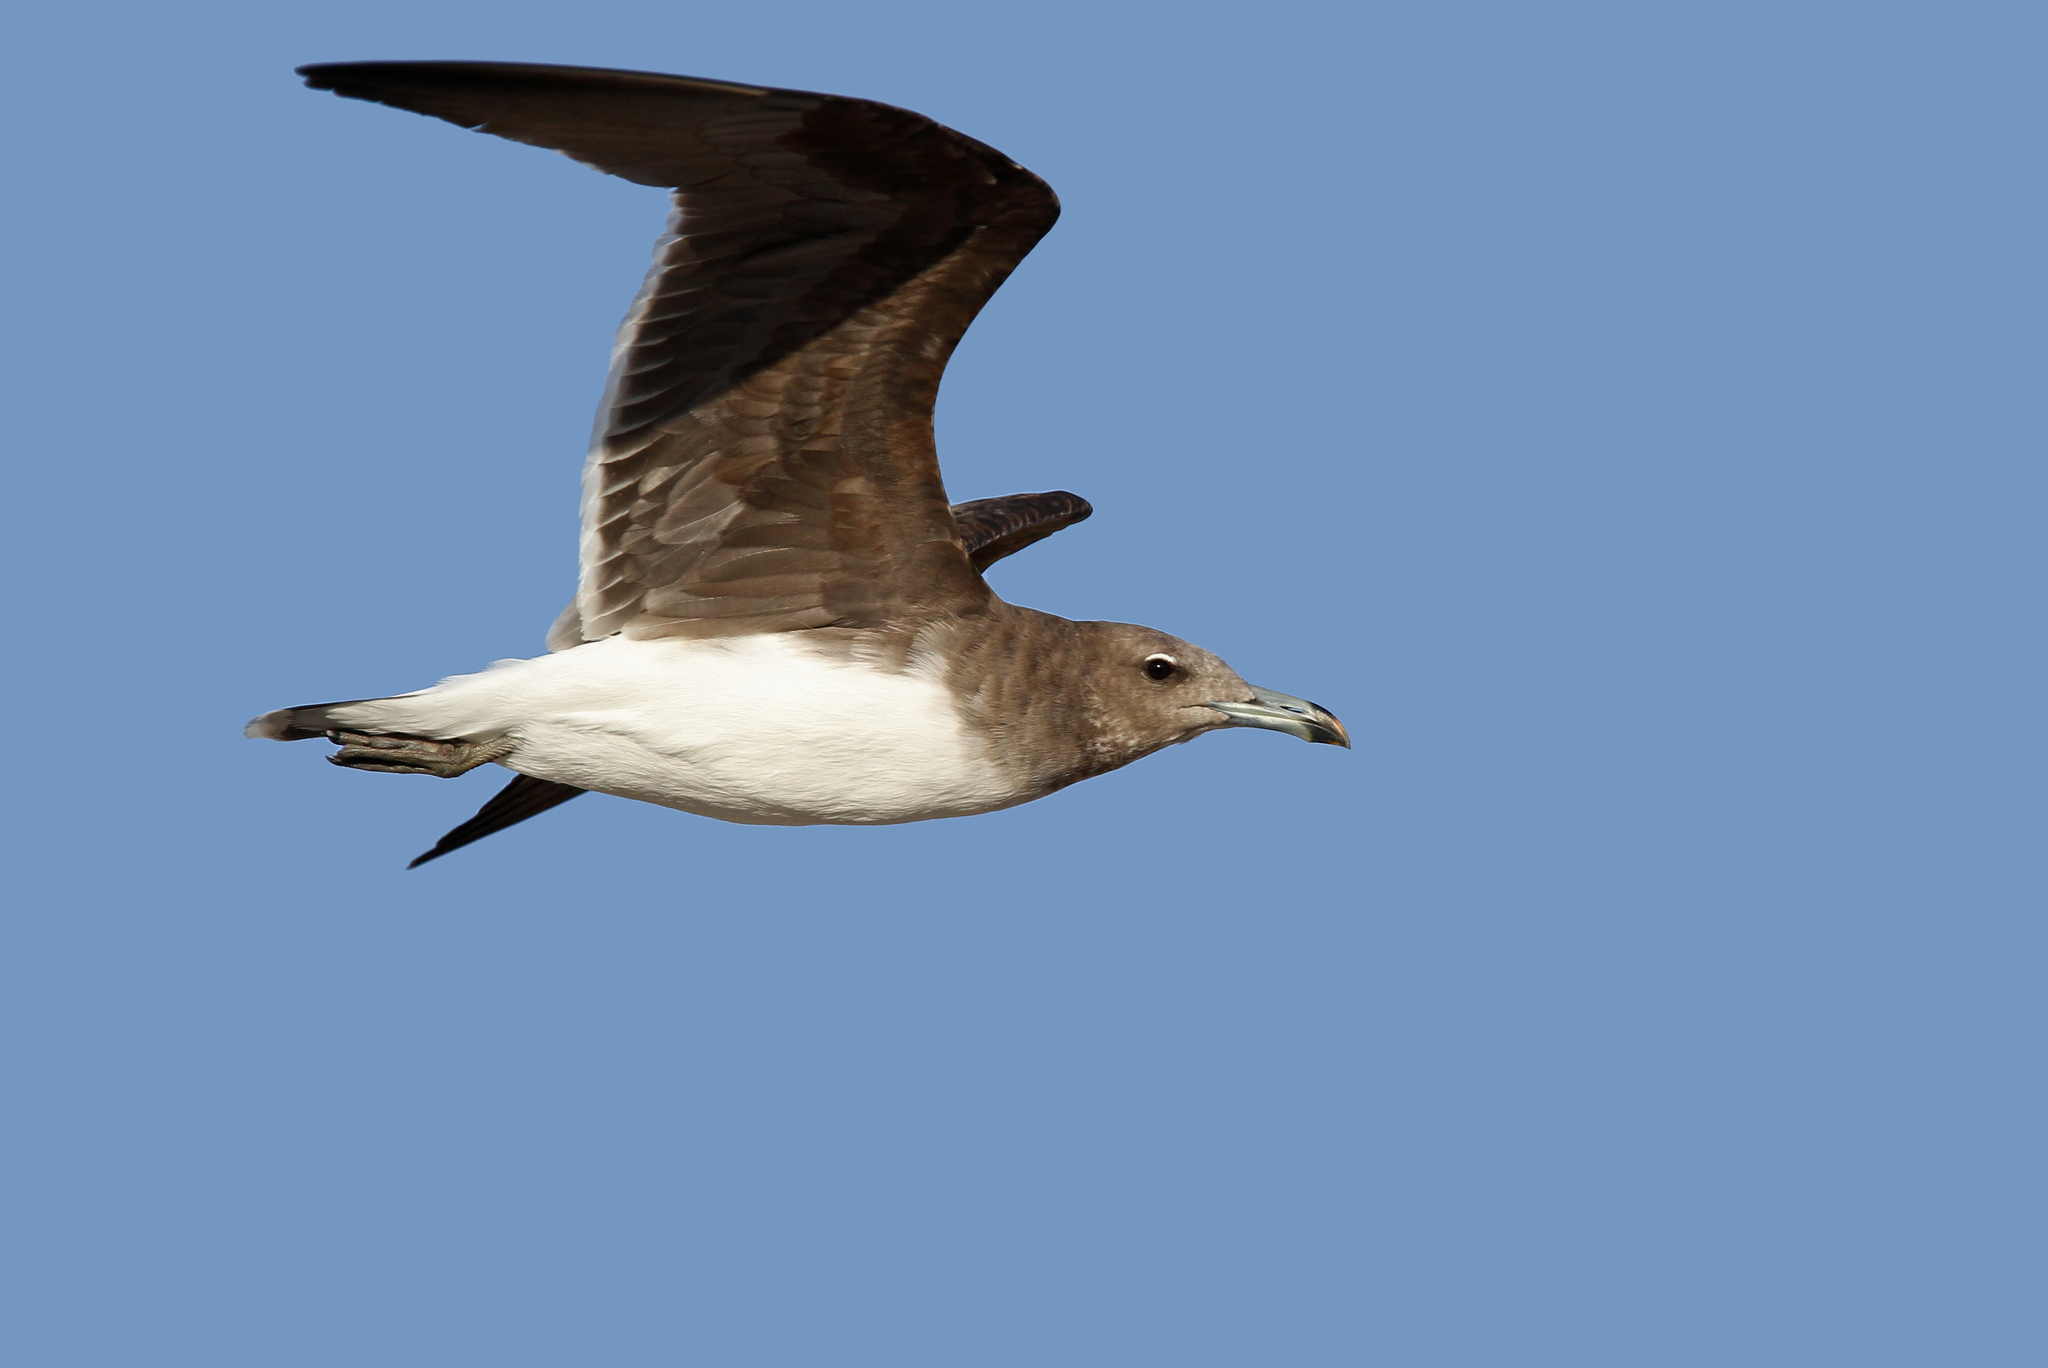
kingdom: Animalia
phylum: Chordata
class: Aves
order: Charadriiformes
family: Laridae
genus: Ichthyaetus
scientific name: Ichthyaetus hemprichii
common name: Sooty gull
